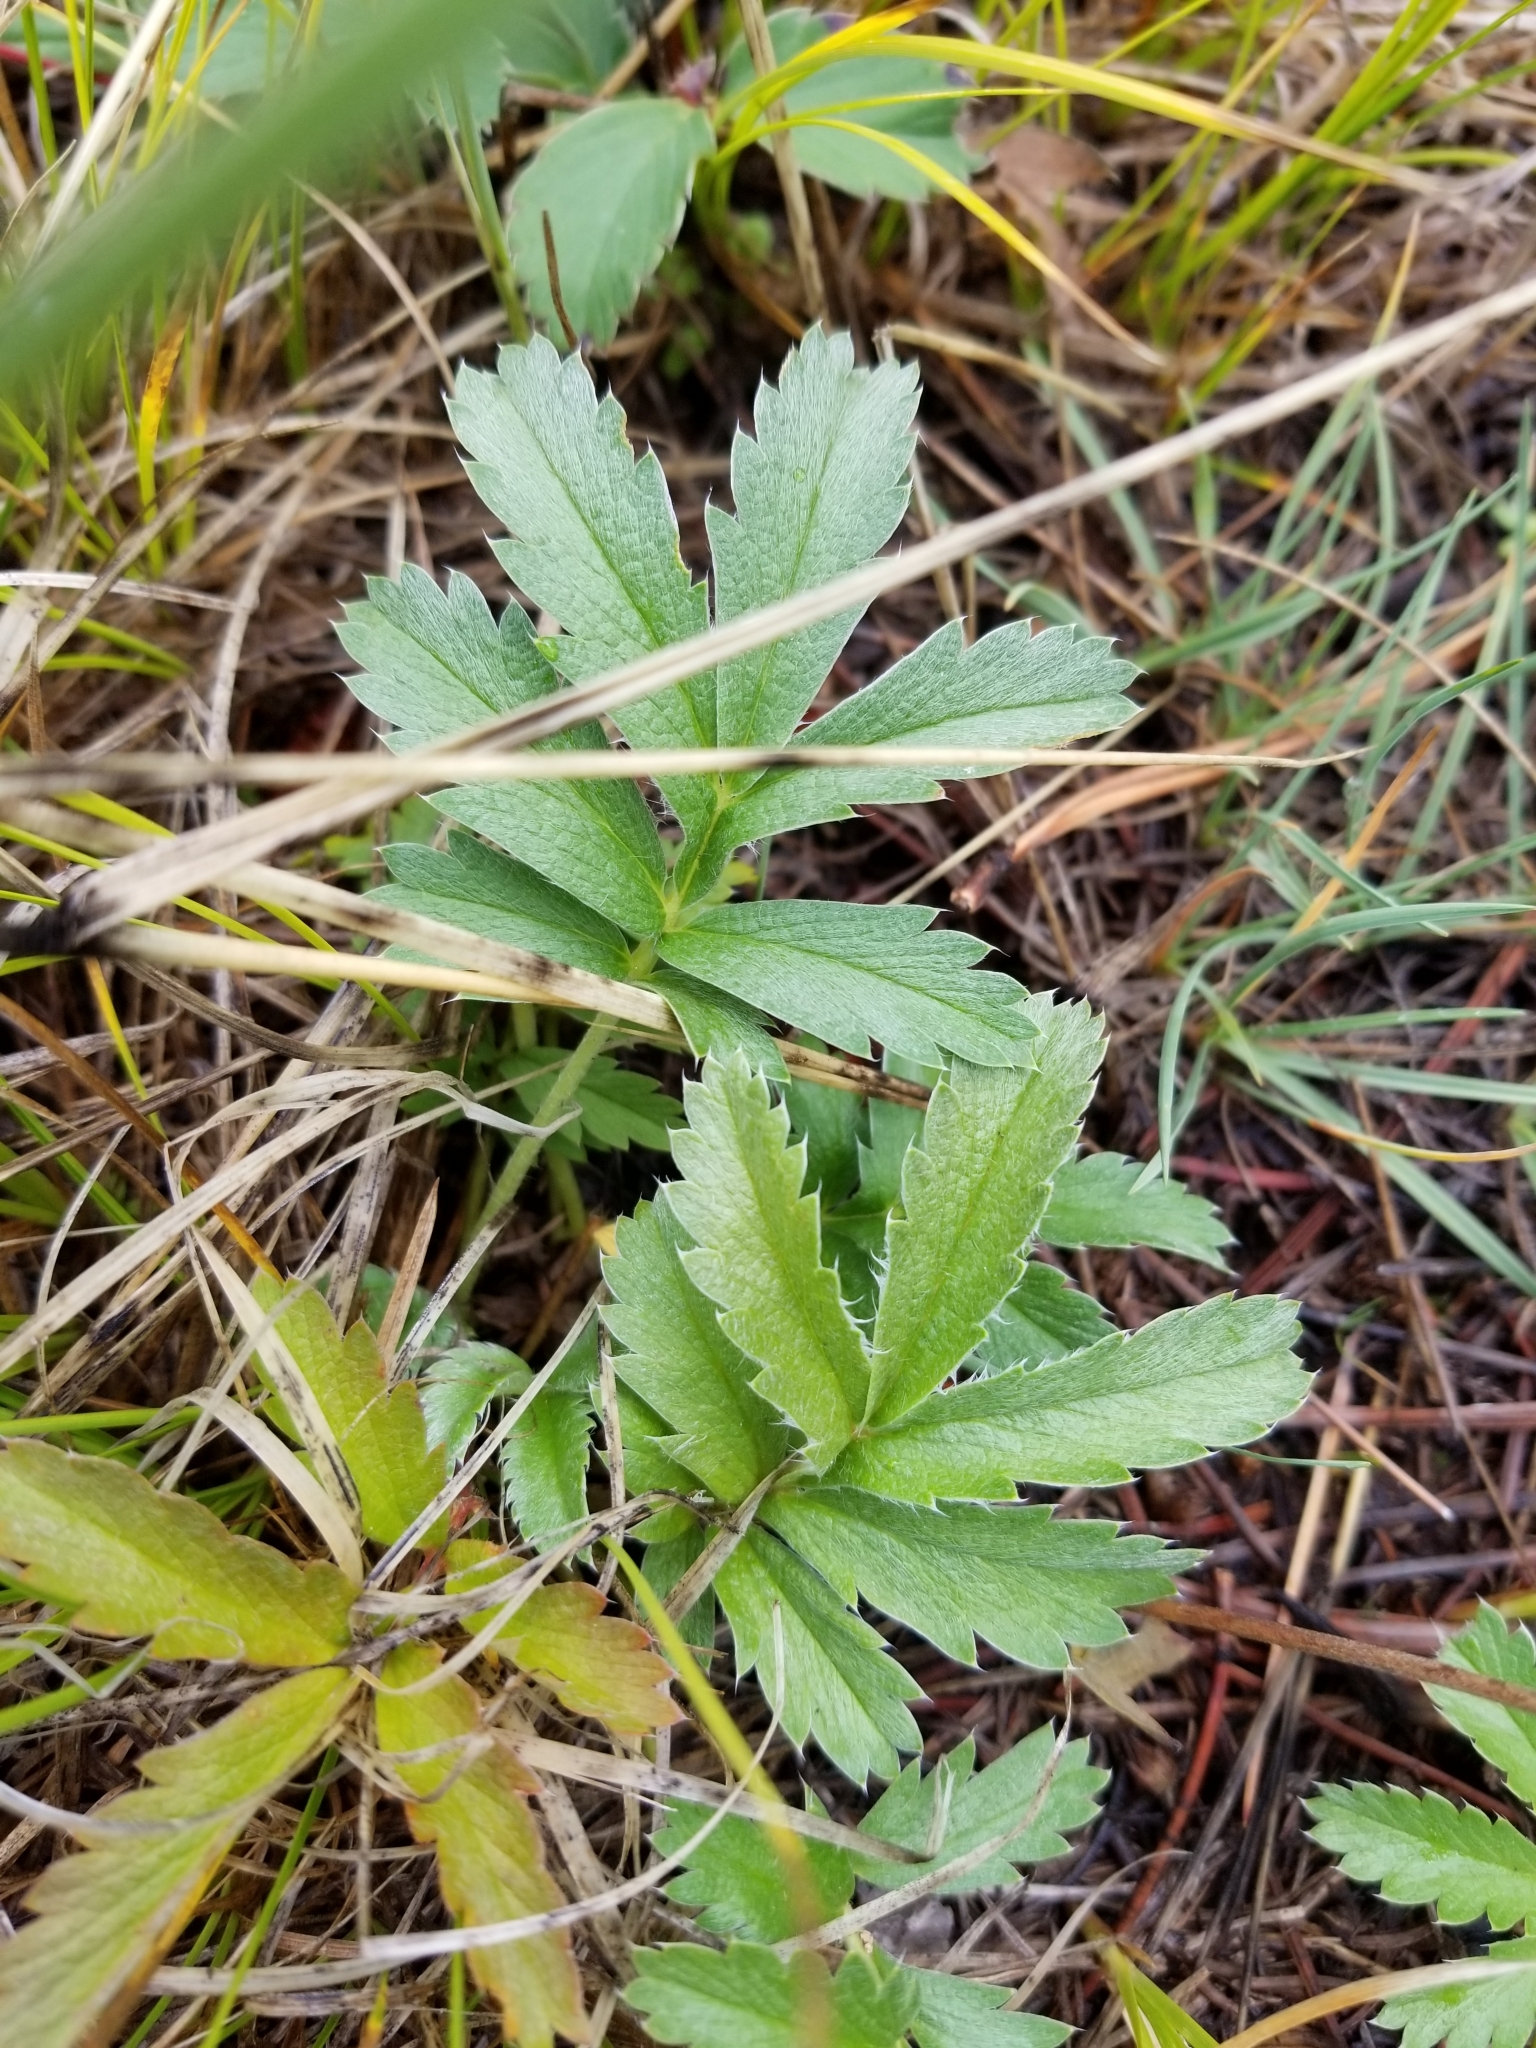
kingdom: Plantae
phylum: Tracheophyta
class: Magnoliopsida
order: Rosales
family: Rosaceae
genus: Potentilla
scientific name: Potentilla hippiana
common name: Woolly cinquefoil
